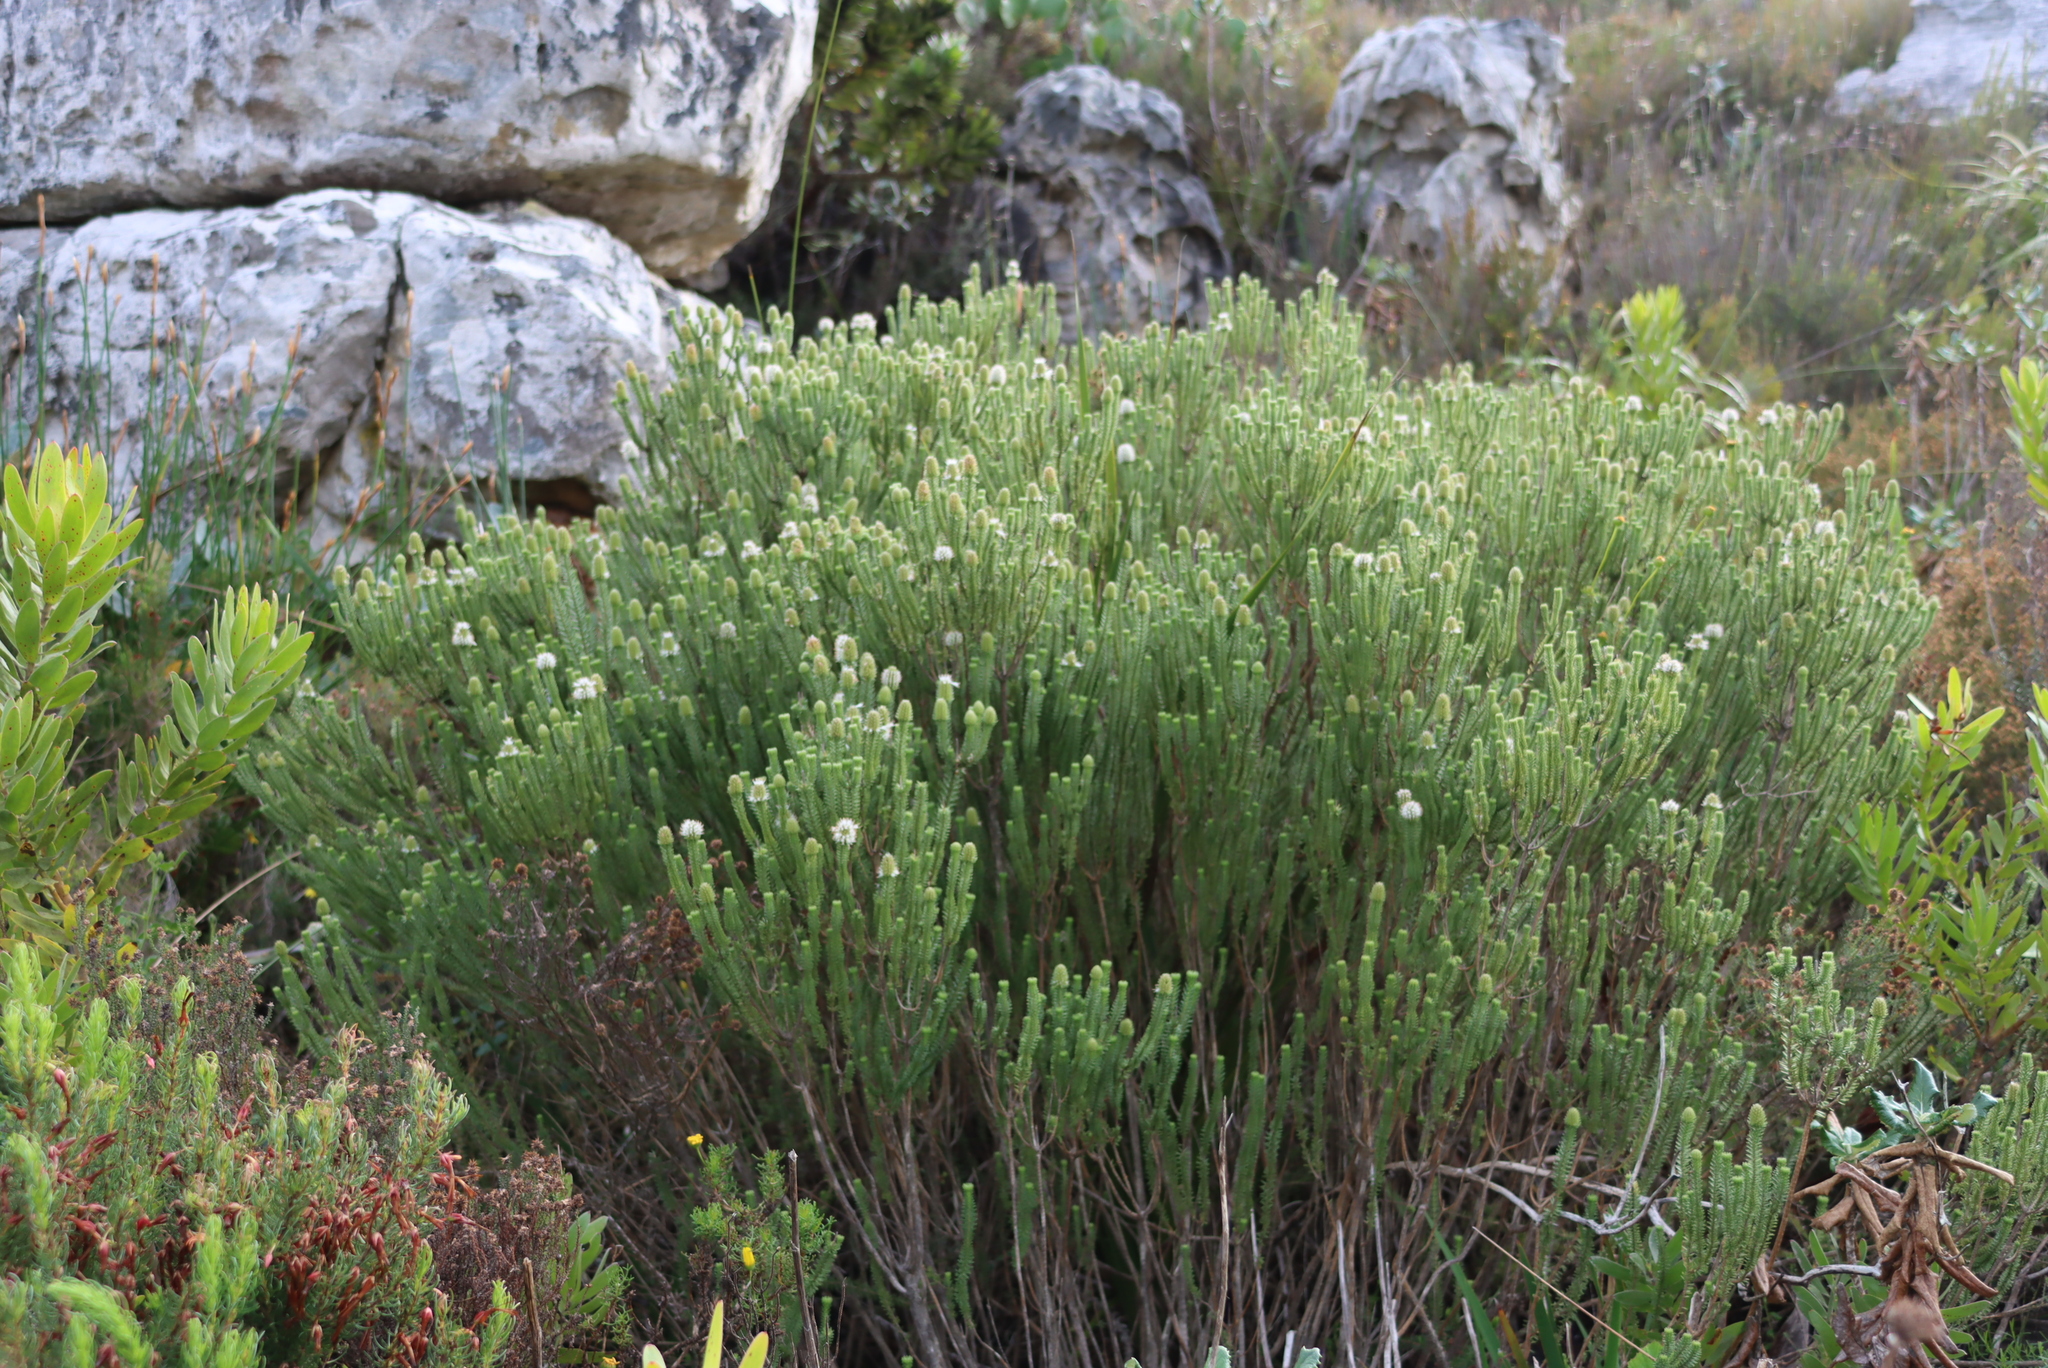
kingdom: Plantae
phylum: Tracheophyta
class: Magnoliopsida
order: Lamiales
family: Stilbaceae
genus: Stilbe
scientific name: Stilbe vestita
